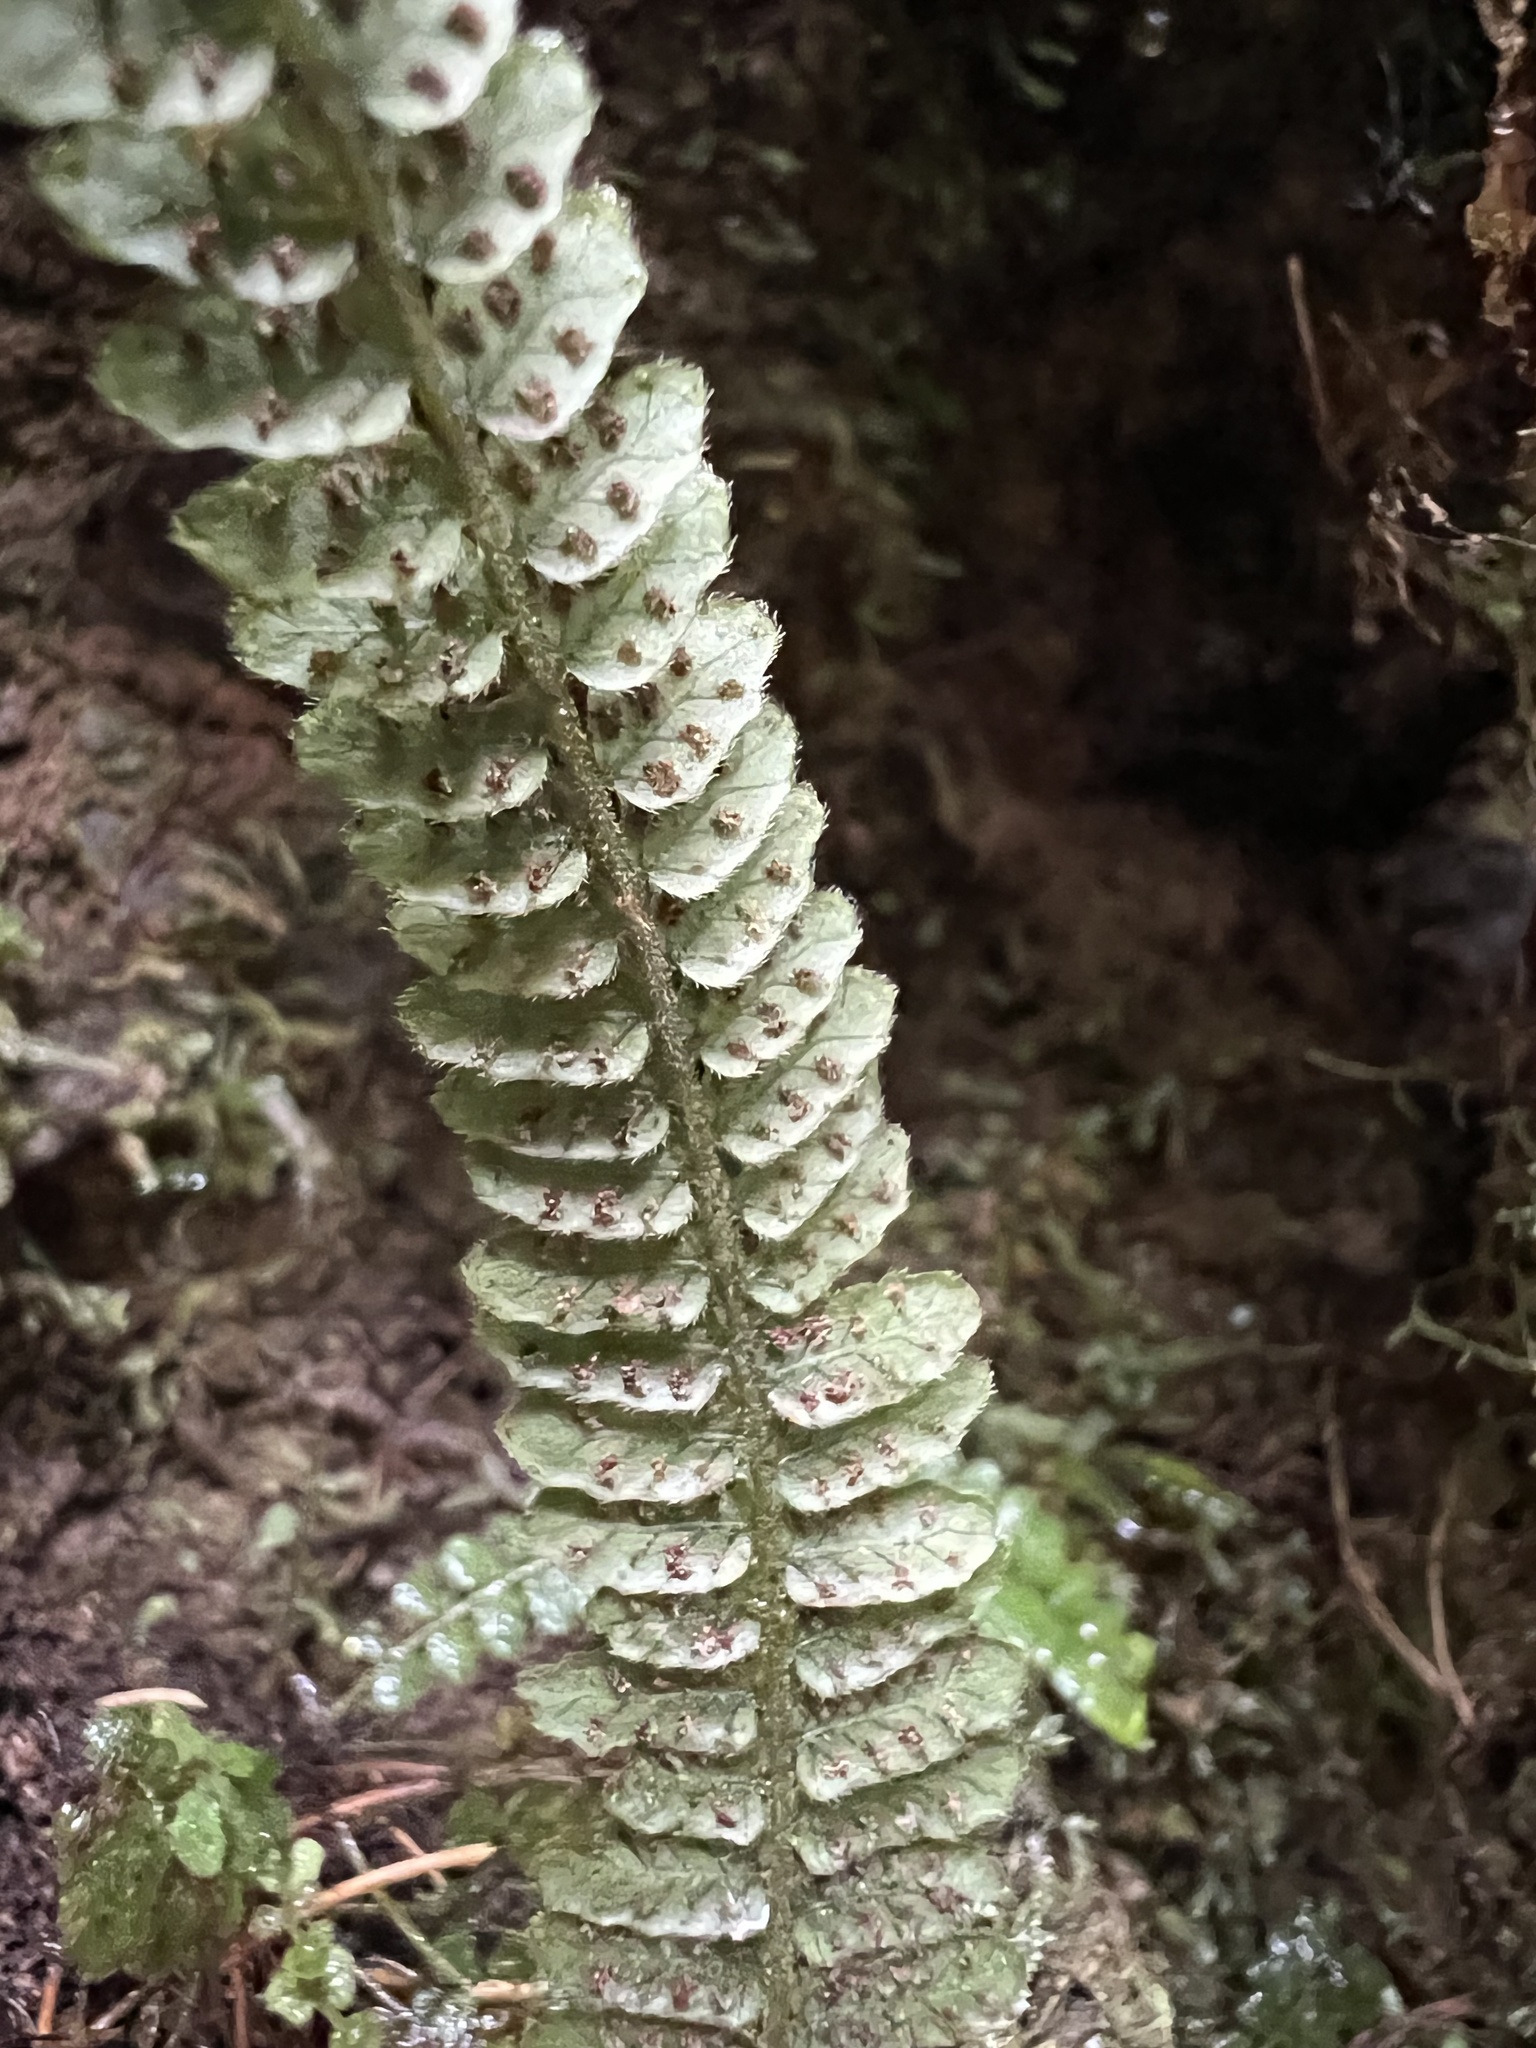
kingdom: Plantae
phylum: Tracheophyta
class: Polypodiopsida
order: Polypodiales
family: Thelypteridaceae
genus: Amauropelta
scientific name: Amauropelta pusilla
